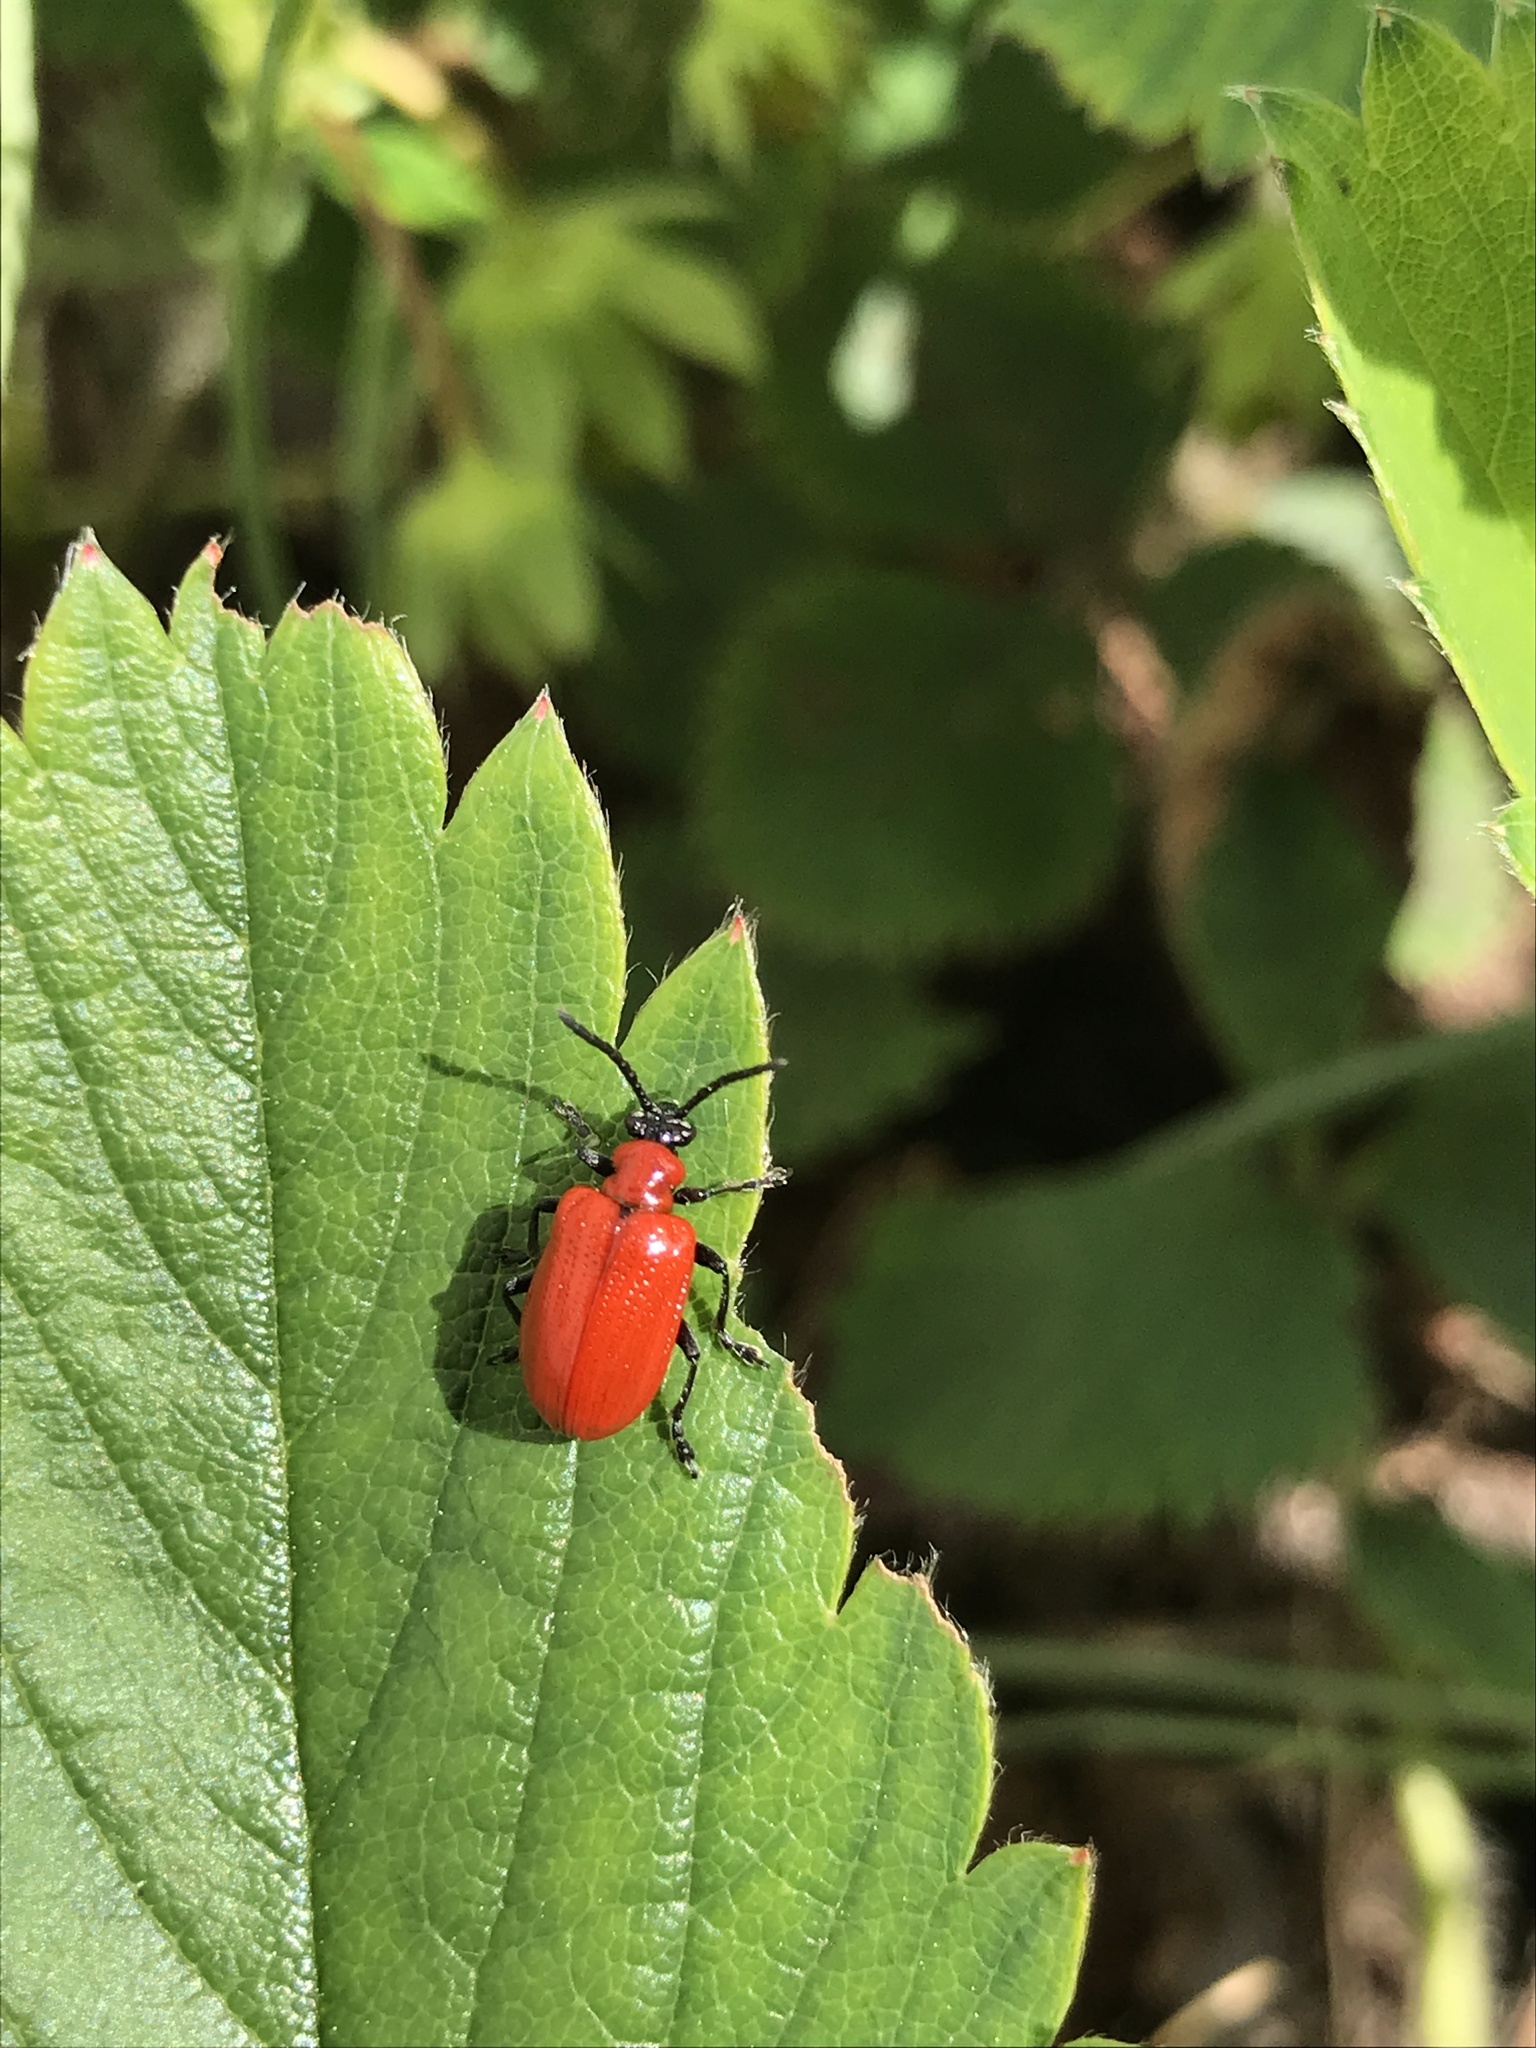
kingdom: Animalia
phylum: Arthropoda
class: Insecta
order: Coleoptera
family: Chrysomelidae
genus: Lilioceris
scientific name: Lilioceris lilii
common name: Lily beetle
